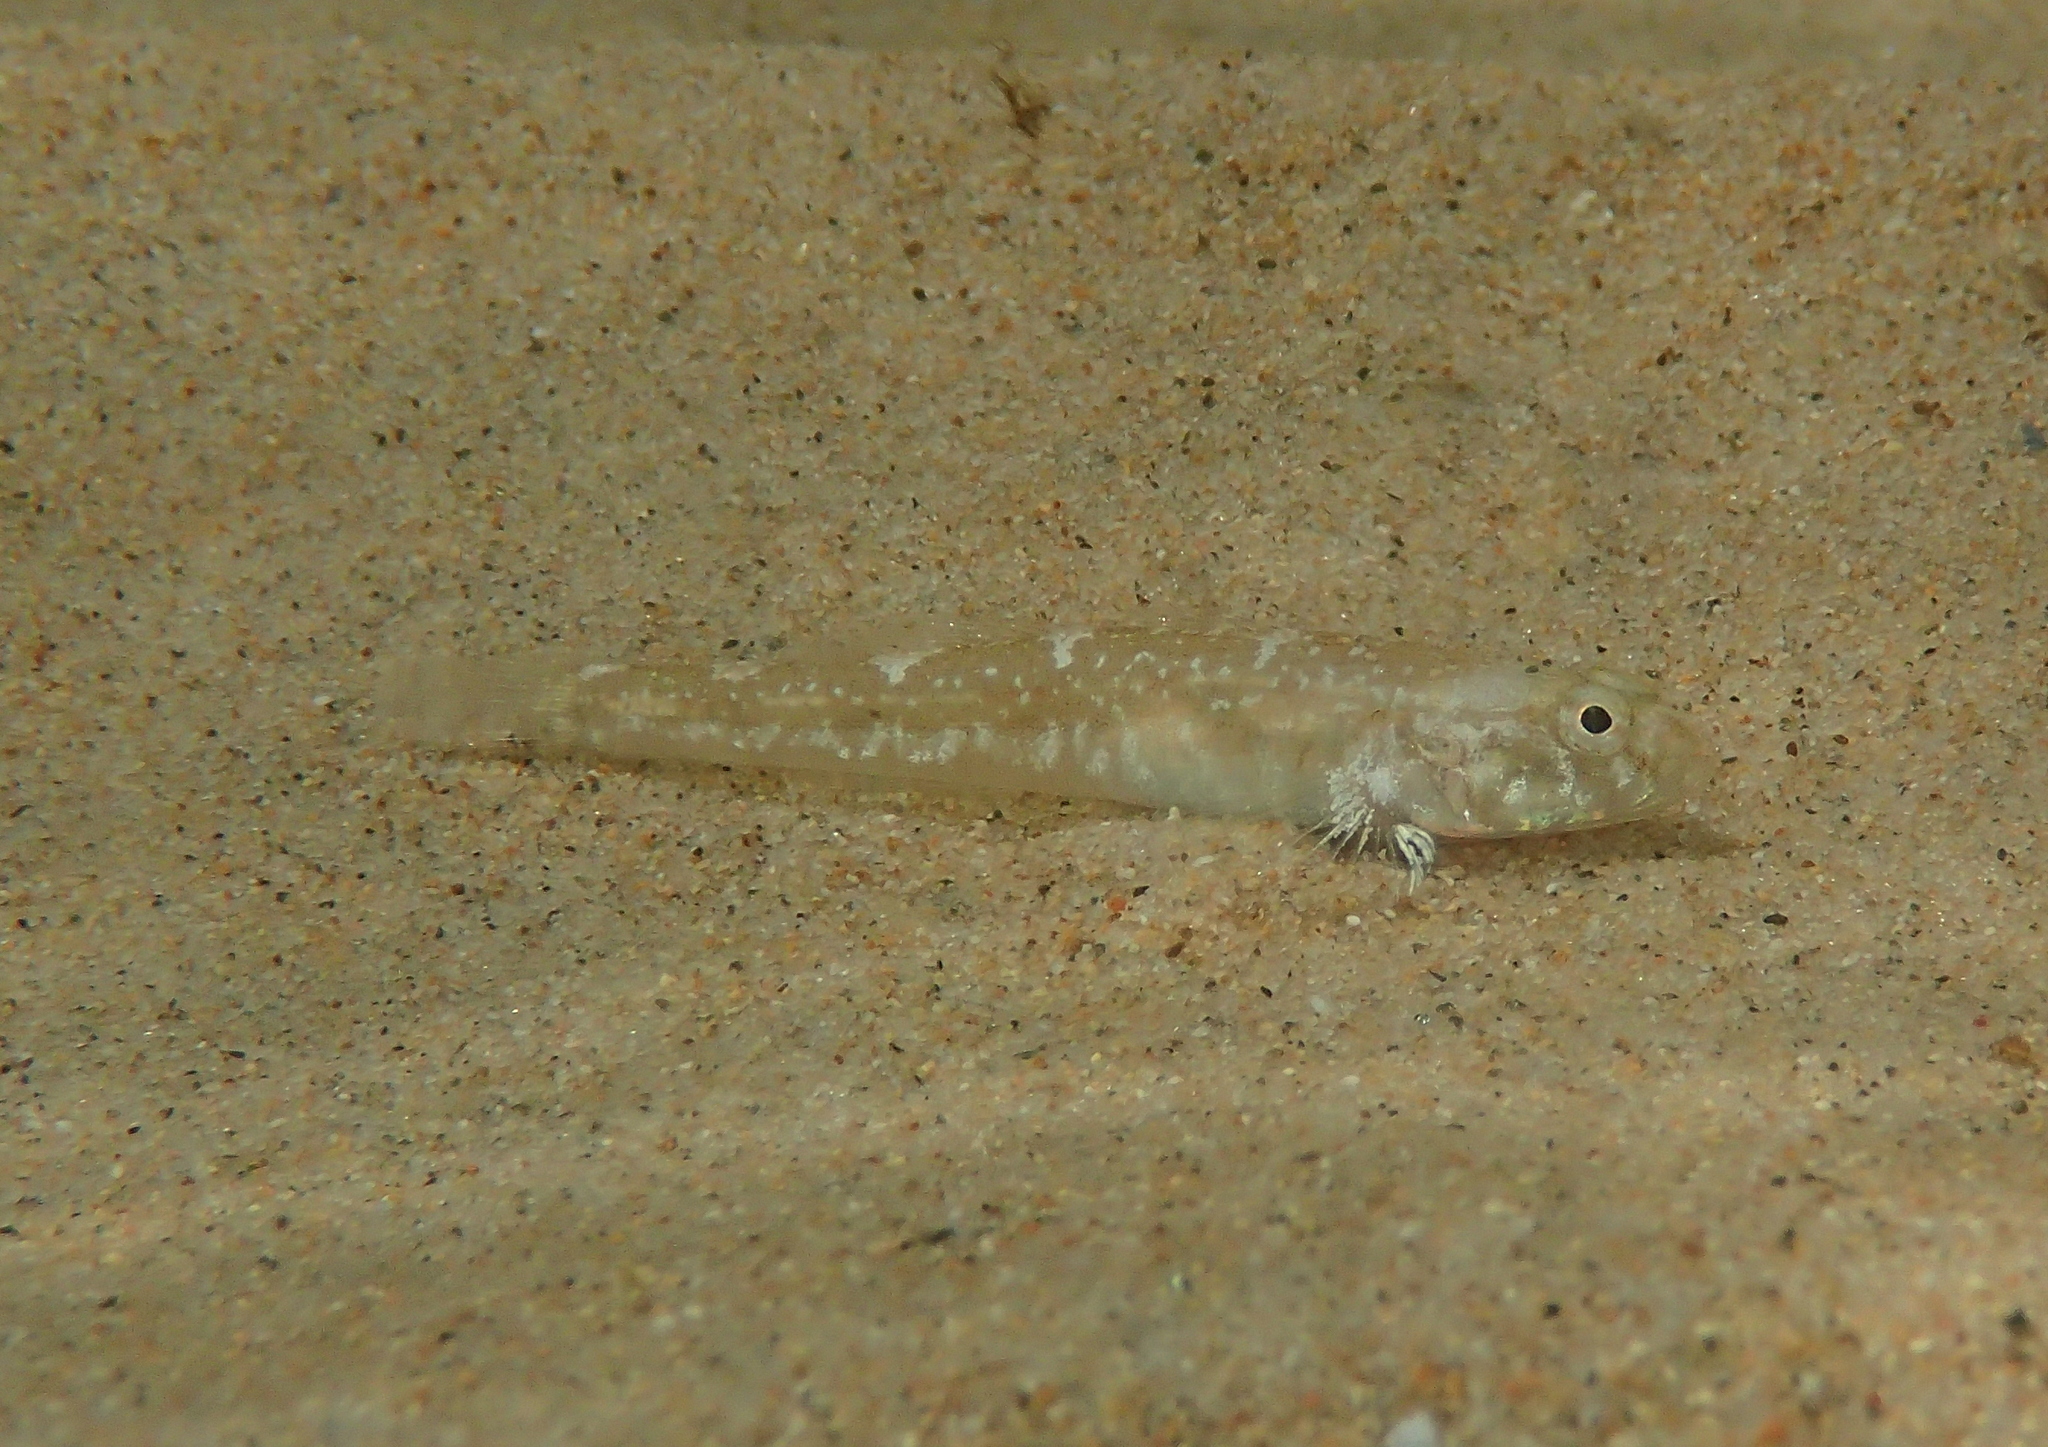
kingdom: Animalia
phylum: Chordata
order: Perciformes
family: Gobiidae
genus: Pomatoschistus
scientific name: Pomatoschistus microps
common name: Common goby
